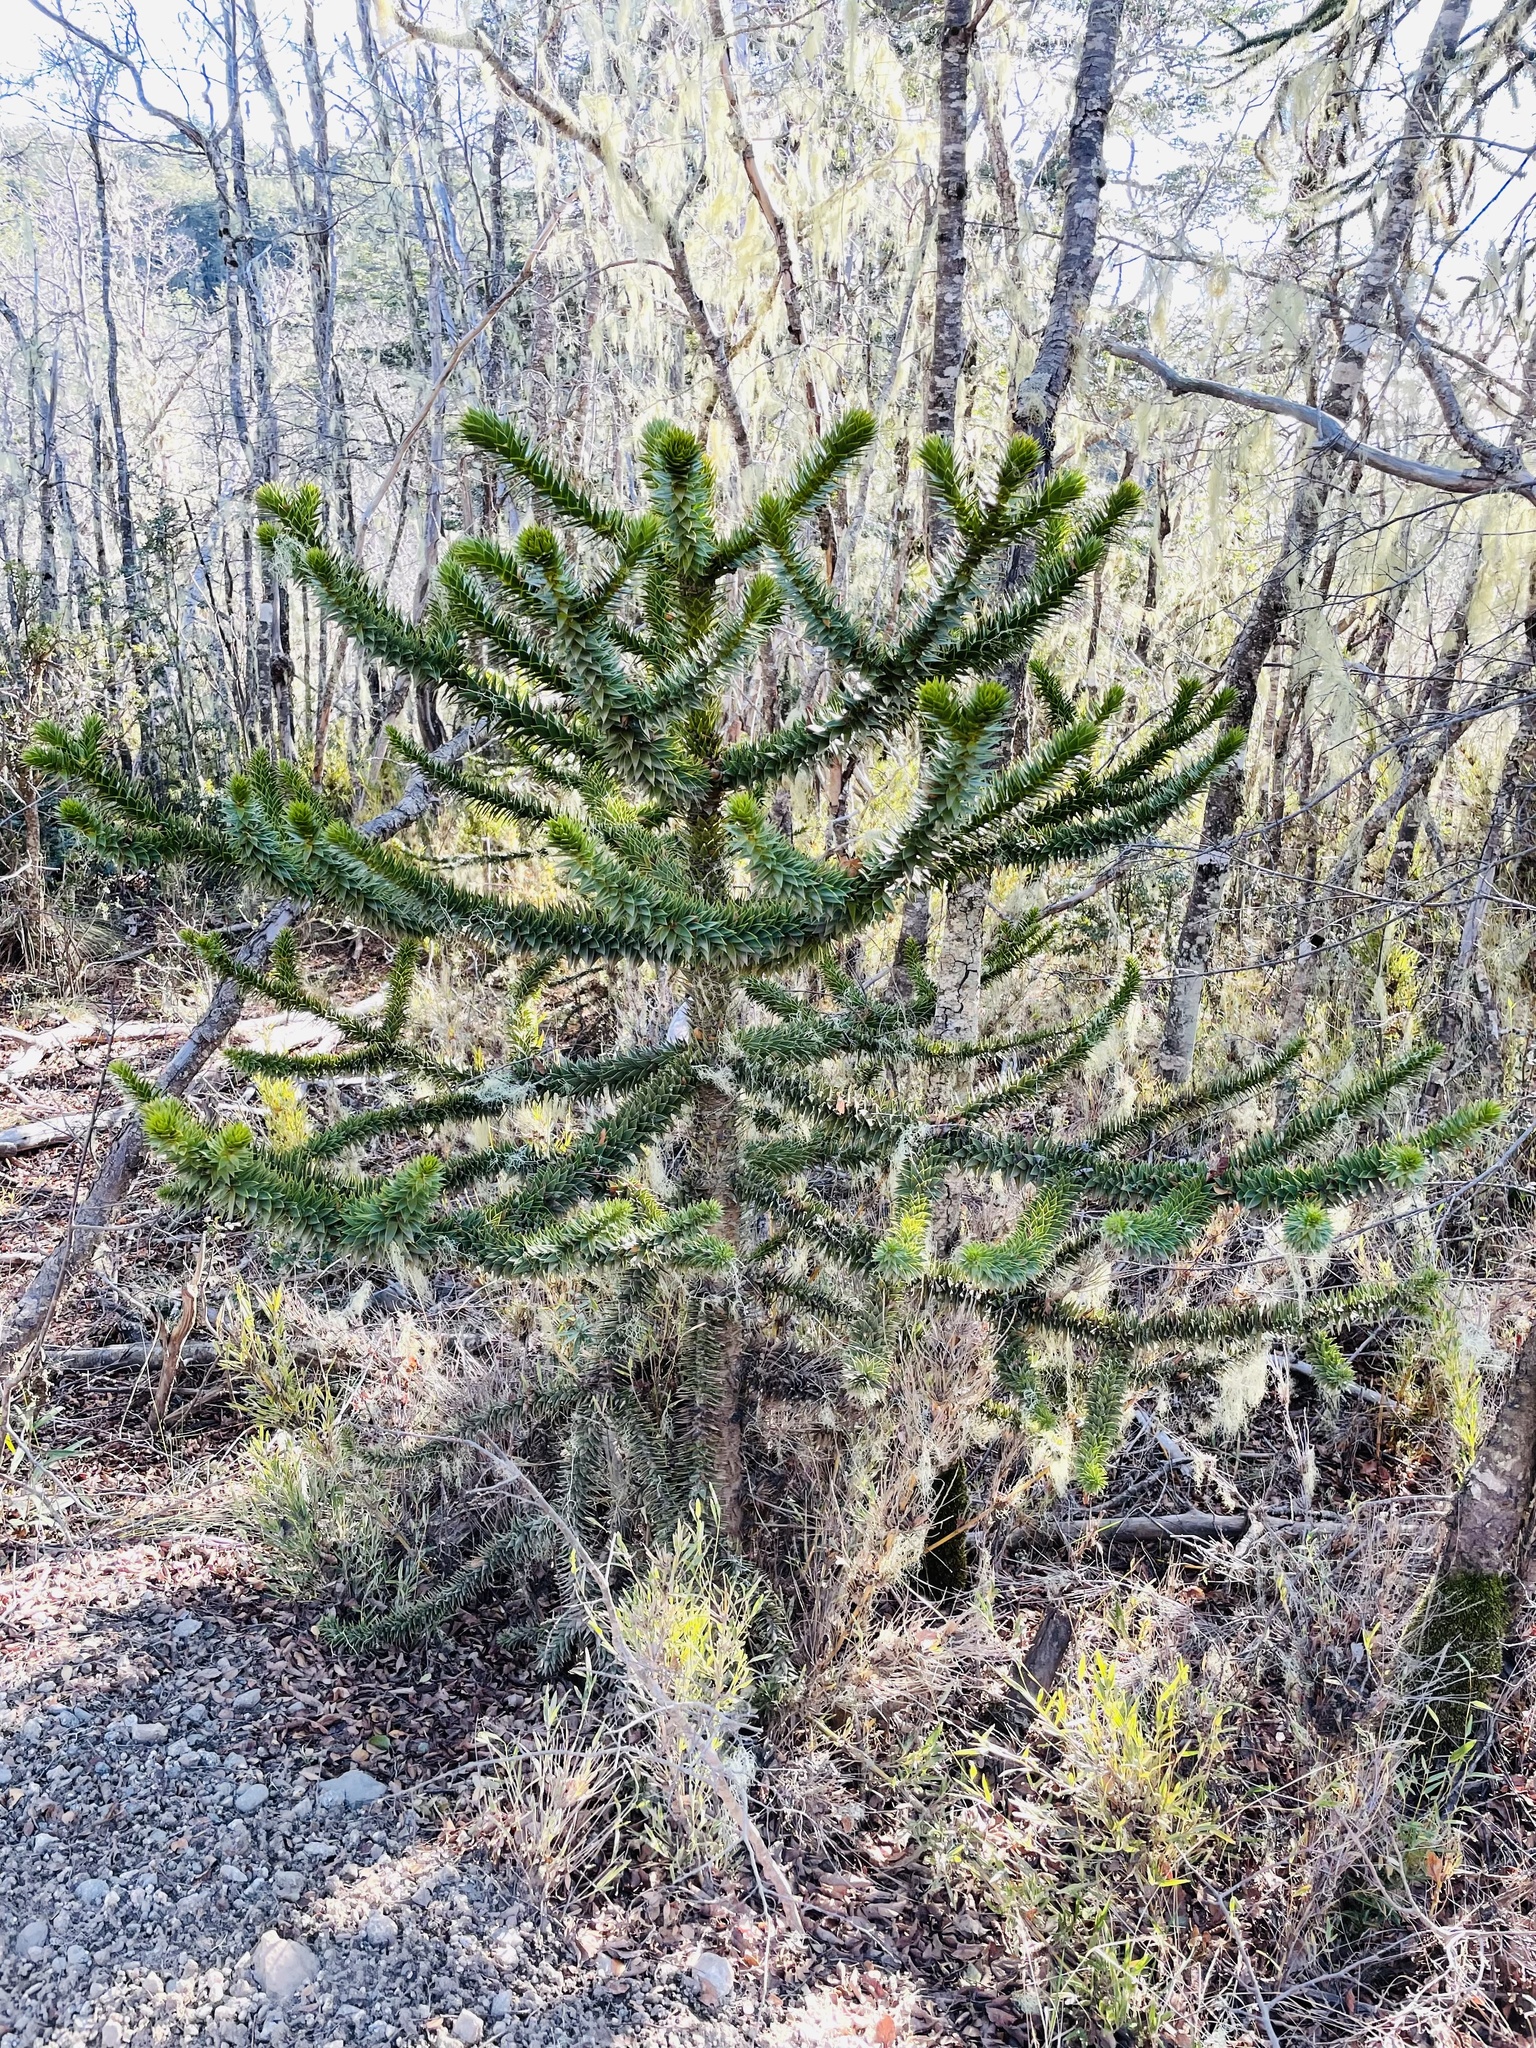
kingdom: Plantae
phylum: Tracheophyta
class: Pinopsida
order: Pinales
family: Araucariaceae
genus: Araucaria
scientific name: Araucaria araucana
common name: Monkey-puzzle
